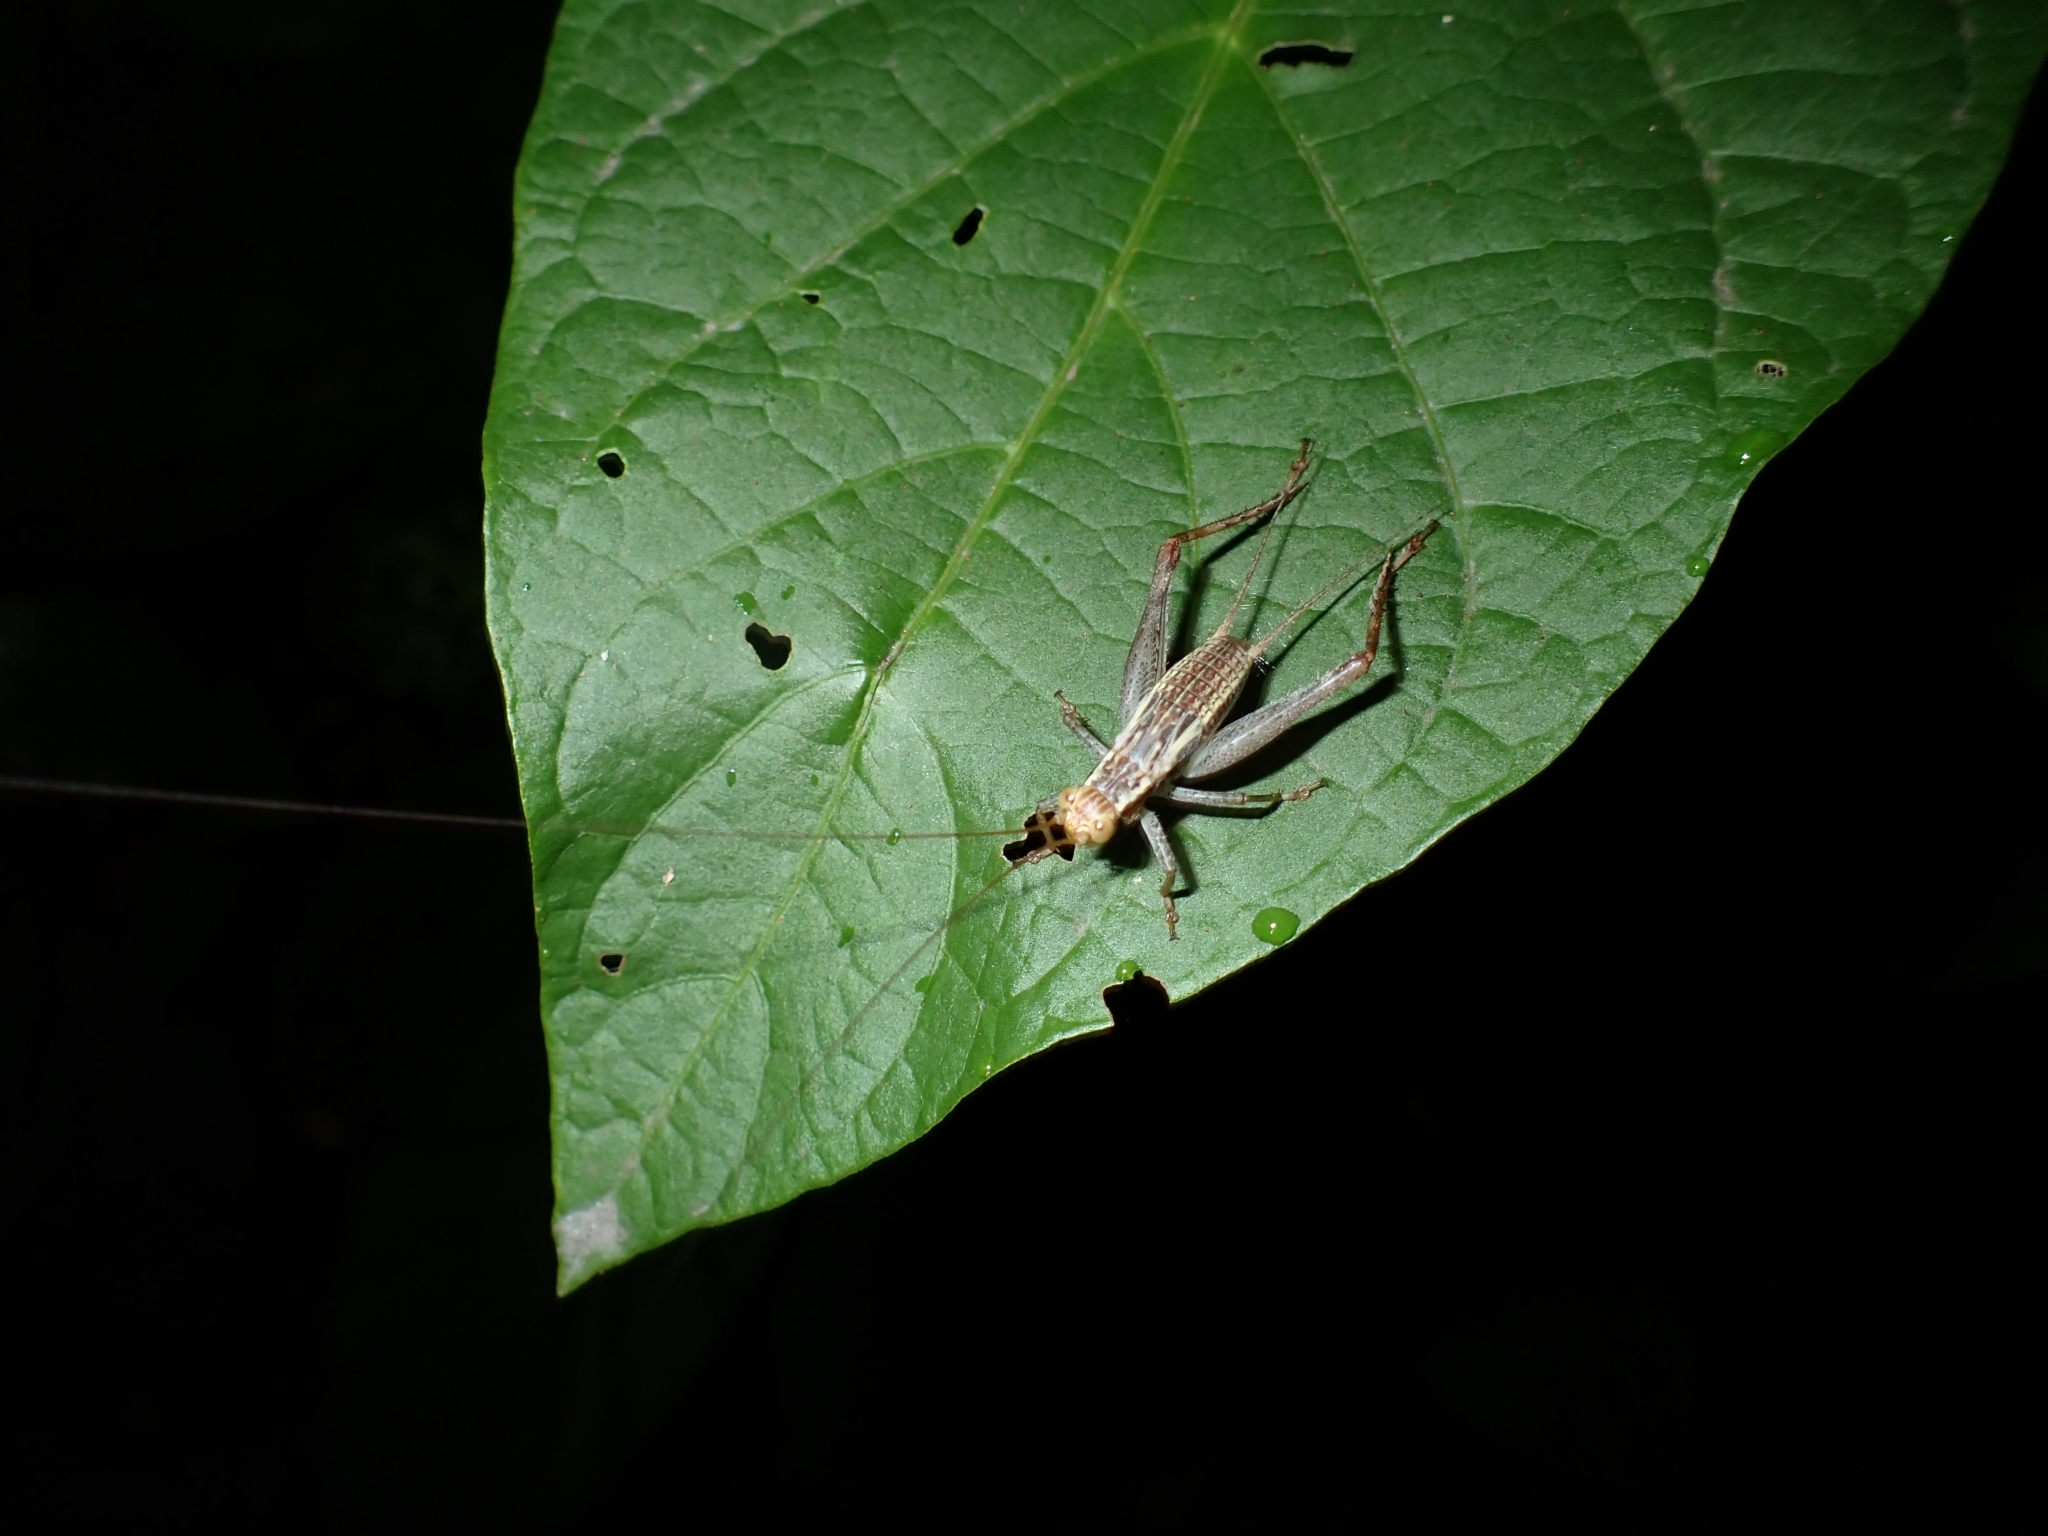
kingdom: Animalia
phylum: Arthropoda
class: Insecta
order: Orthoptera
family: Gryllidae
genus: Cardiodactylus
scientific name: Cardiodactylus novaeguineae
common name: Sad cricket
